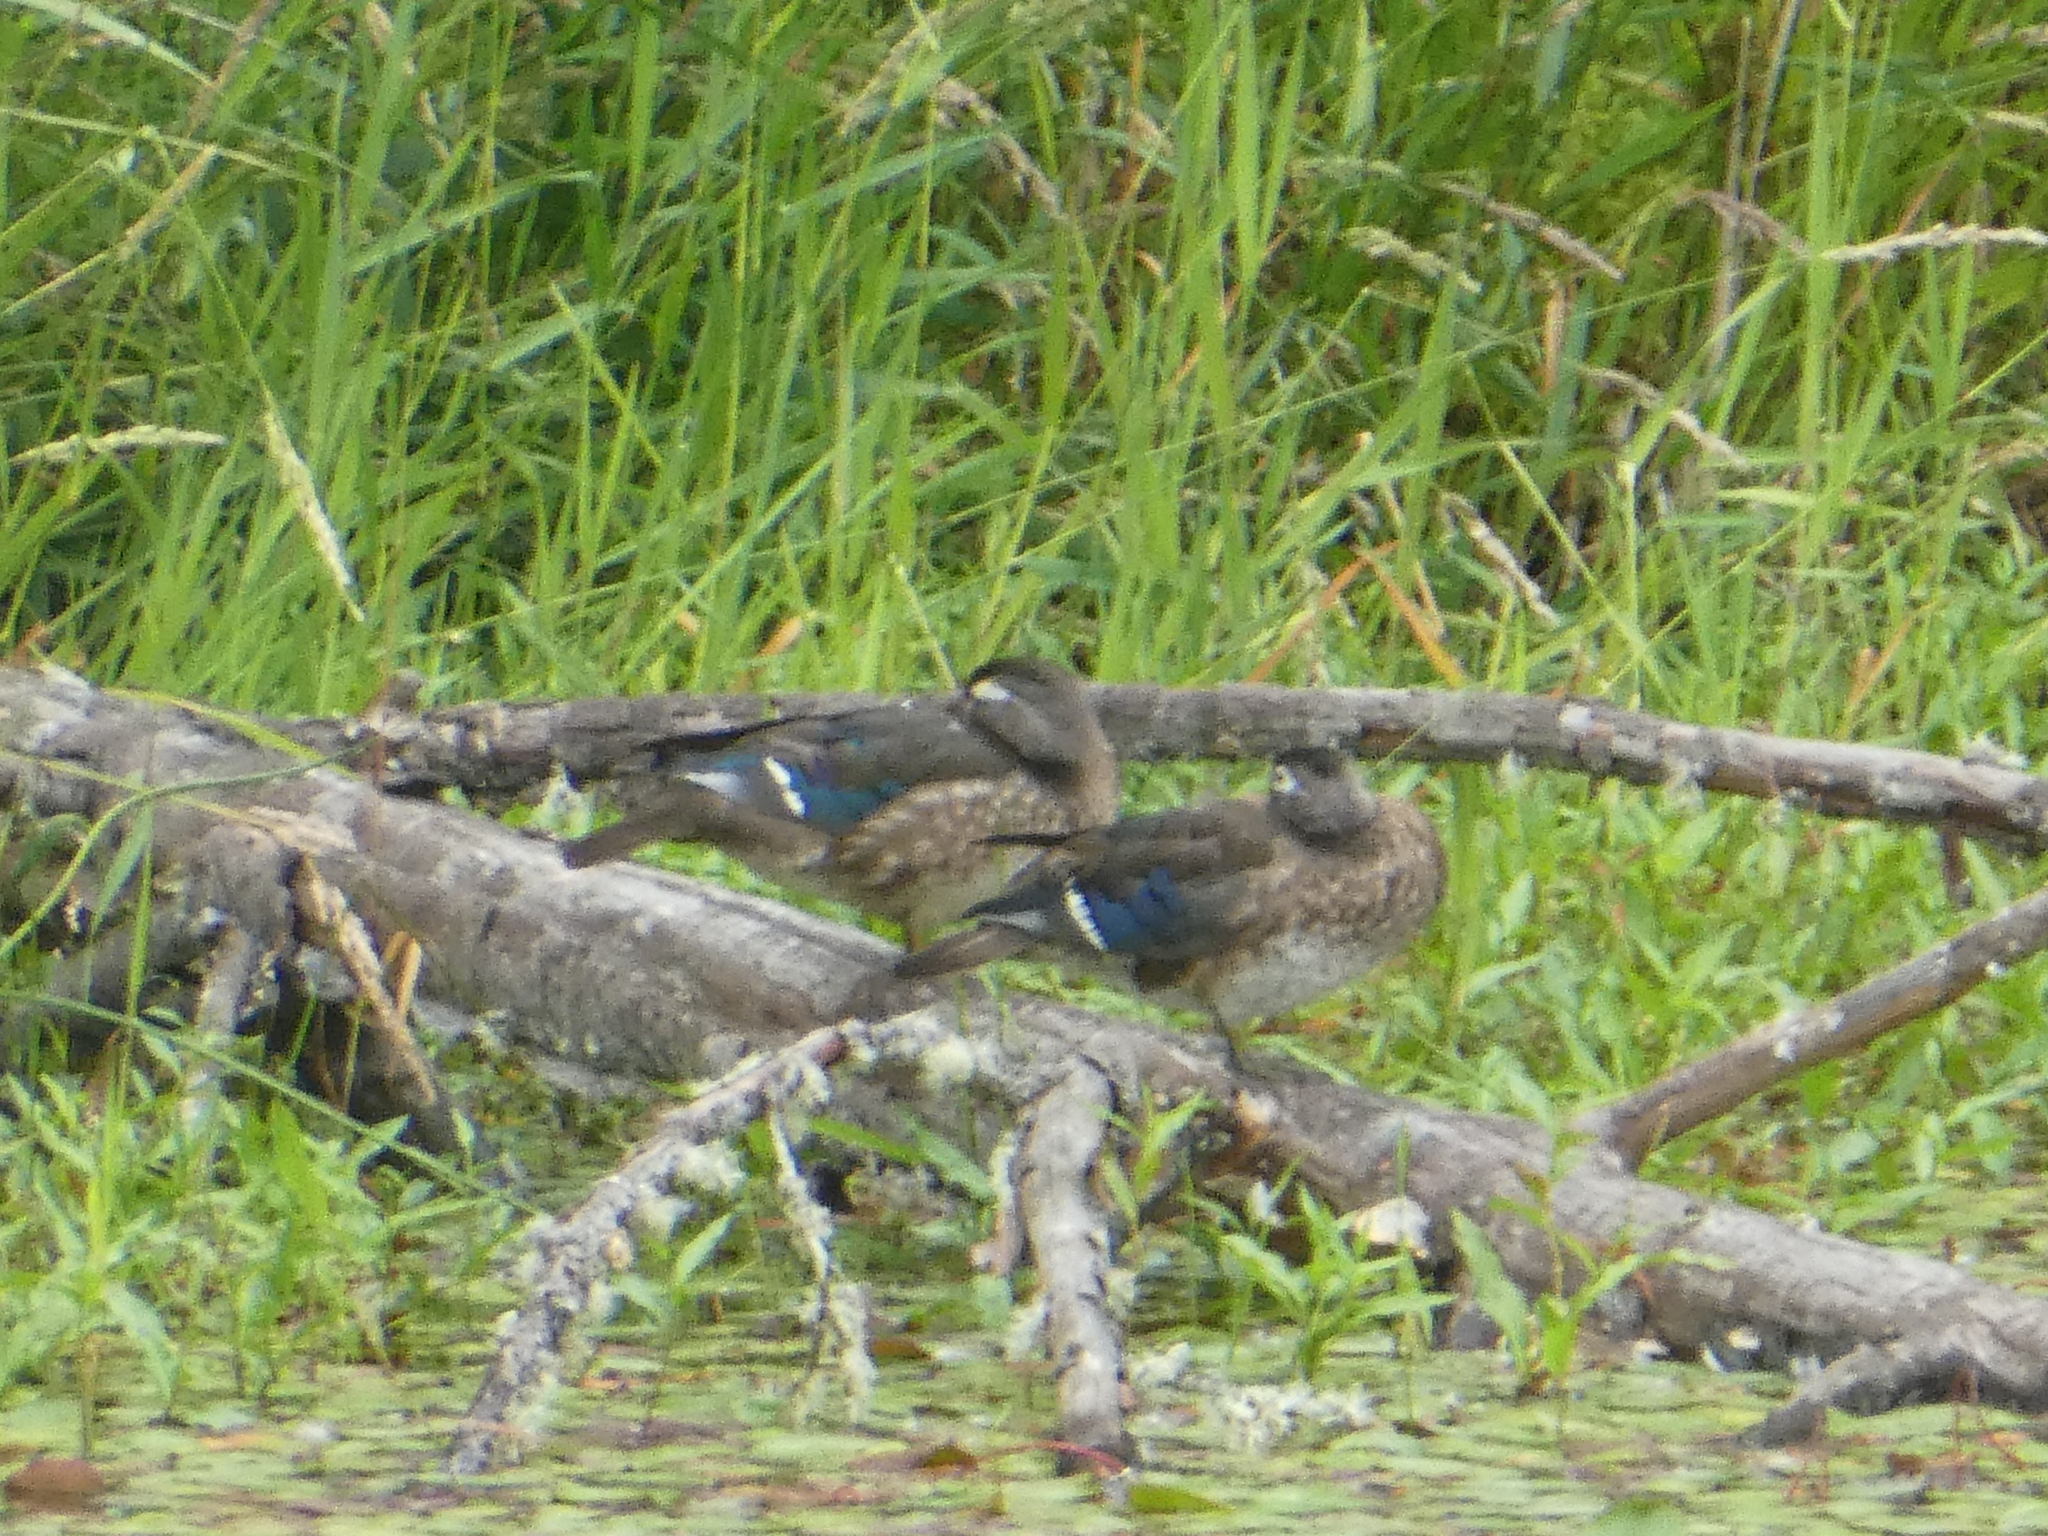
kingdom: Animalia
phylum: Chordata
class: Aves
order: Anseriformes
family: Anatidae
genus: Aix
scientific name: Aix sponsa
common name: Wood duck
